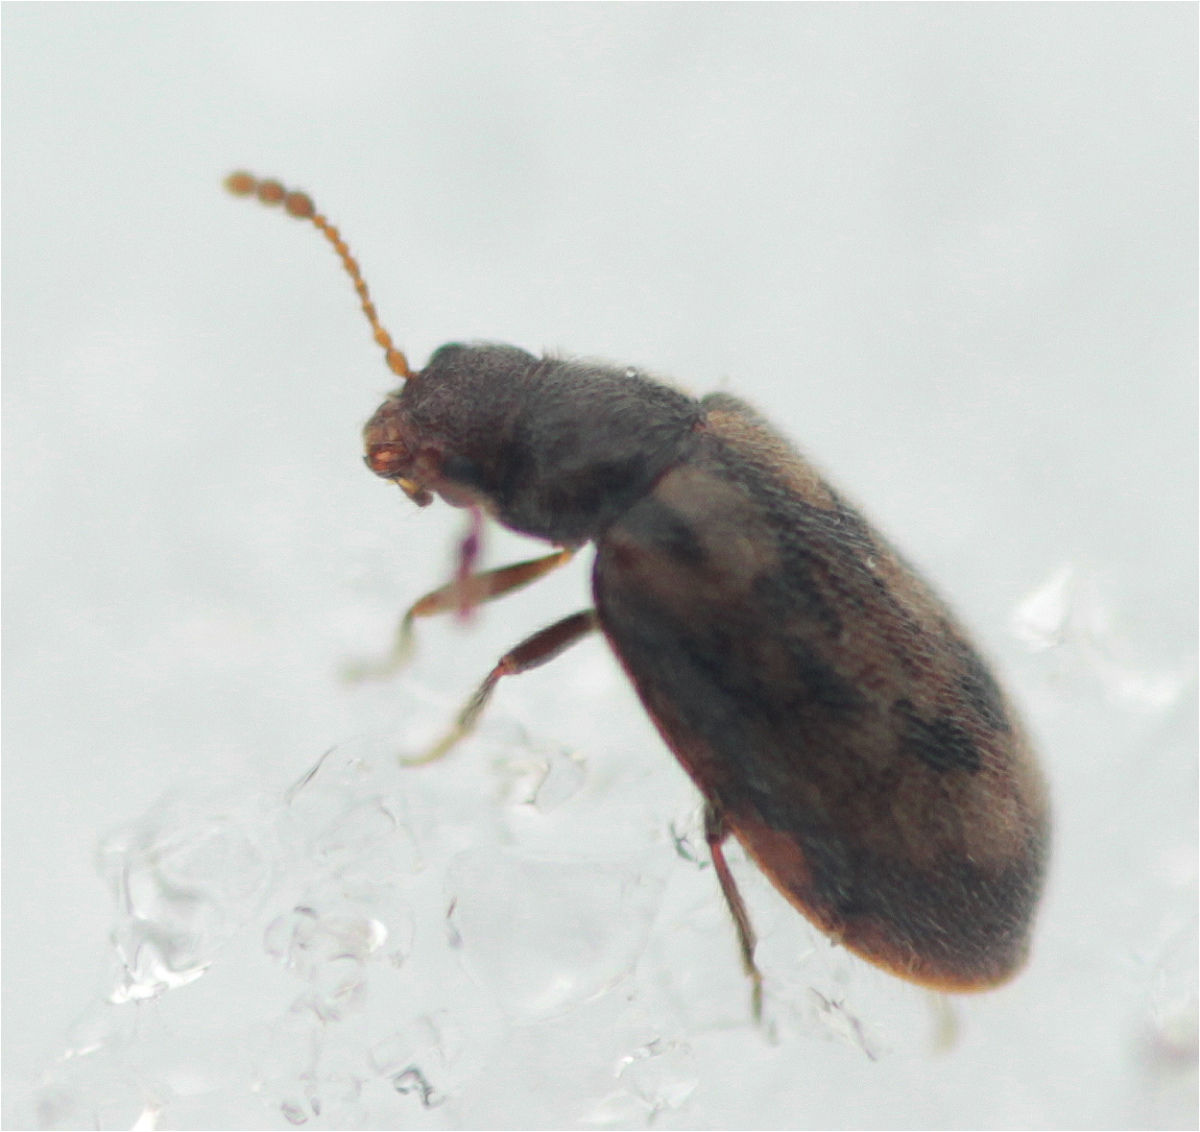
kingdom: Animalia
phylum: Arthropoda
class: Insecta
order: Coleoptera
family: Phloiophilidae
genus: Phloiophilus
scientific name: Phloiophilus edwardsii
